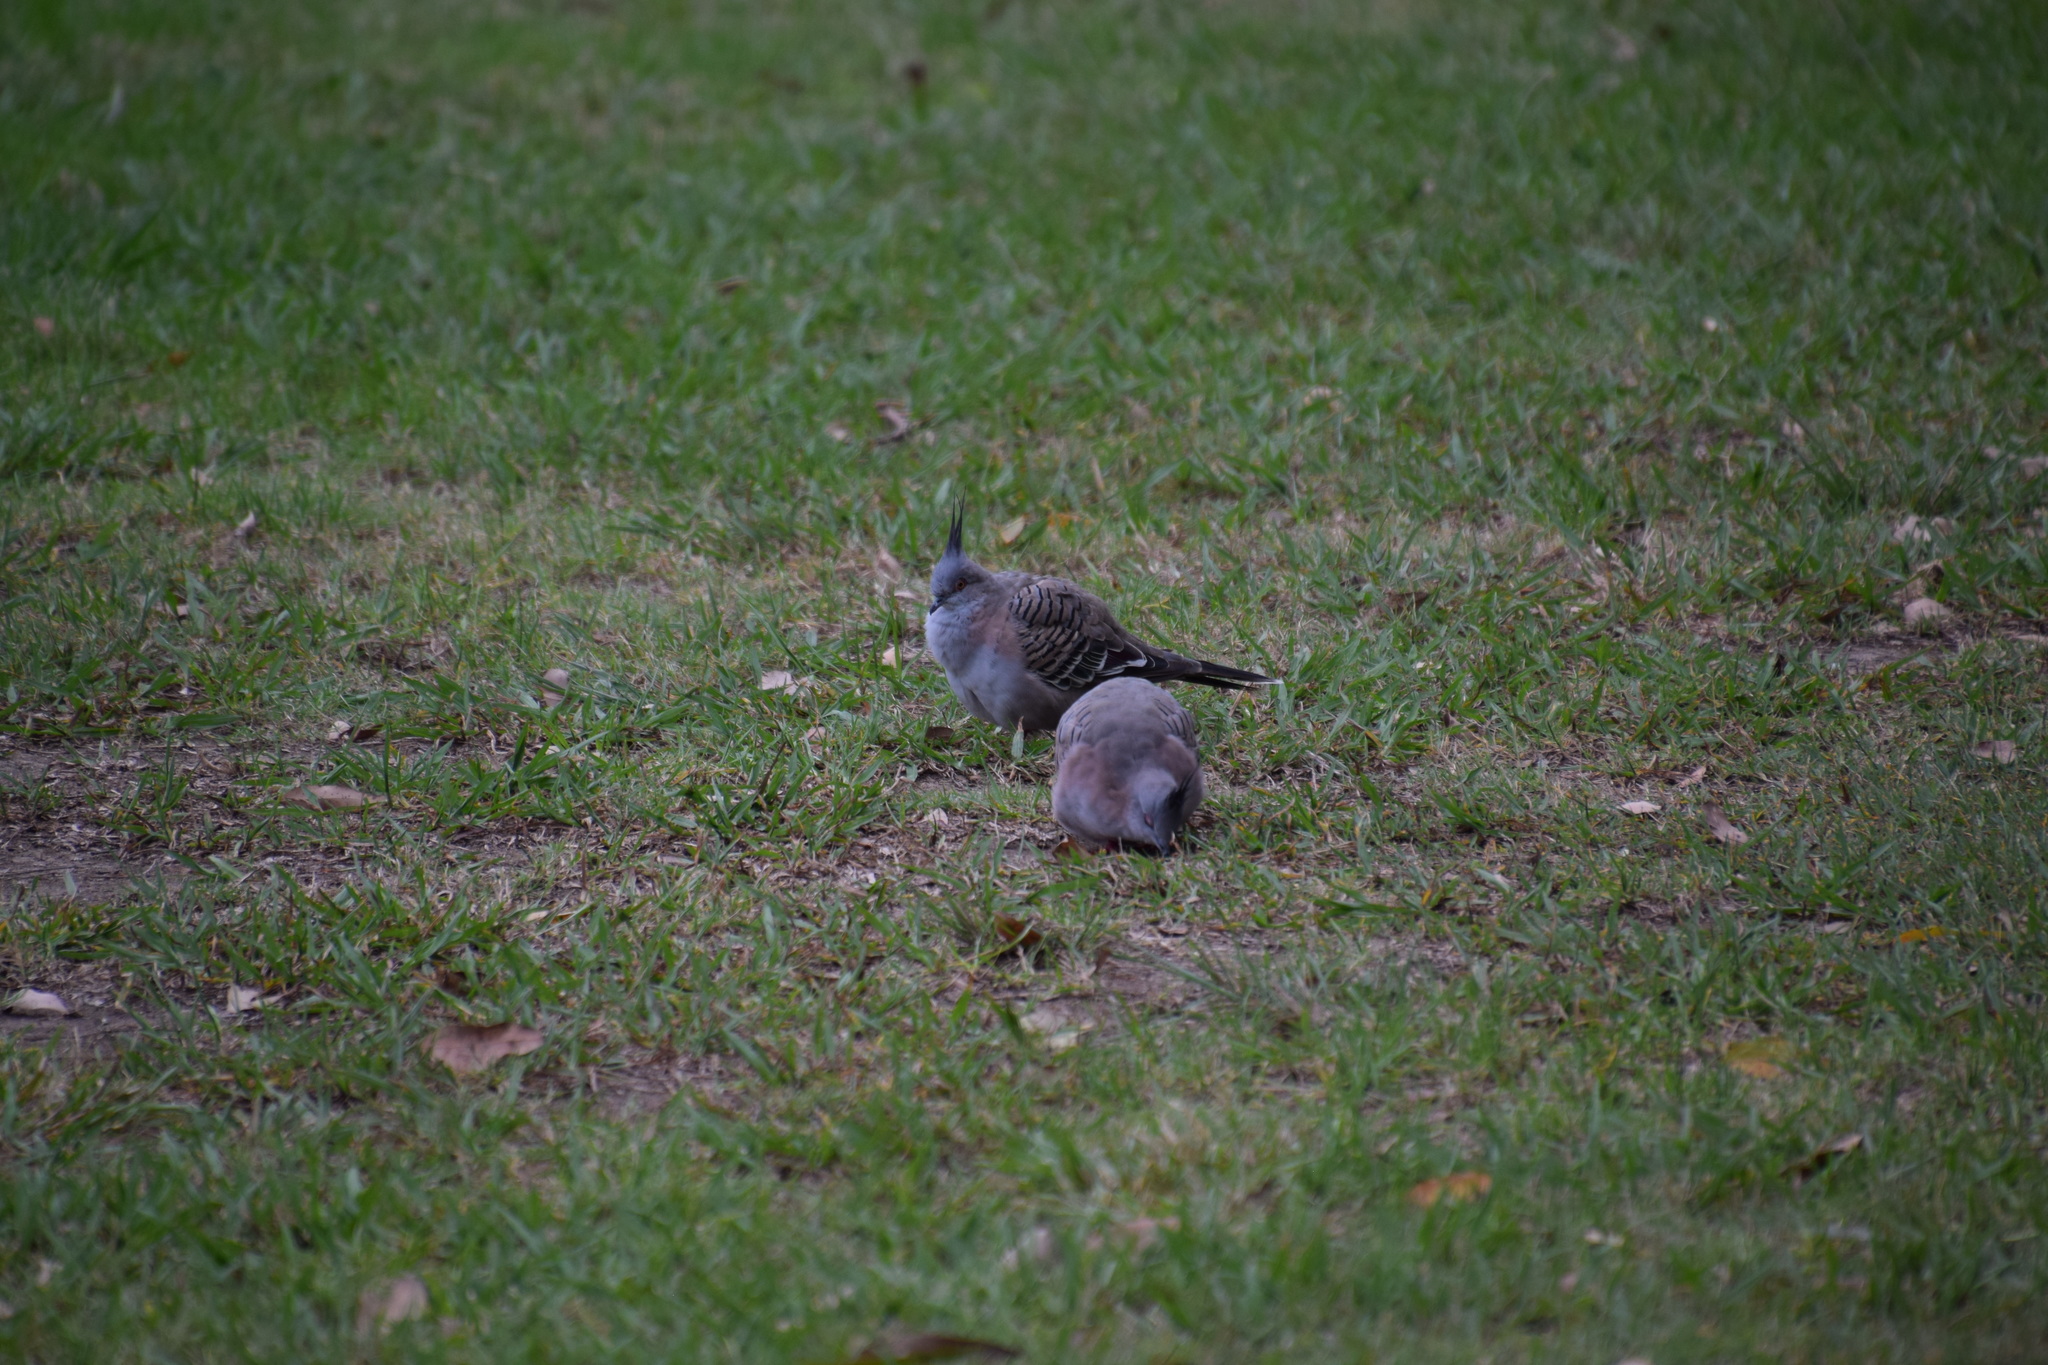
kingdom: Animalia
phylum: Chordata
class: Aves
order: Columbiformes
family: Columbidae
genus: Ocyphaps
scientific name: Ocyphaps lophotes
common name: Crested pigeon
